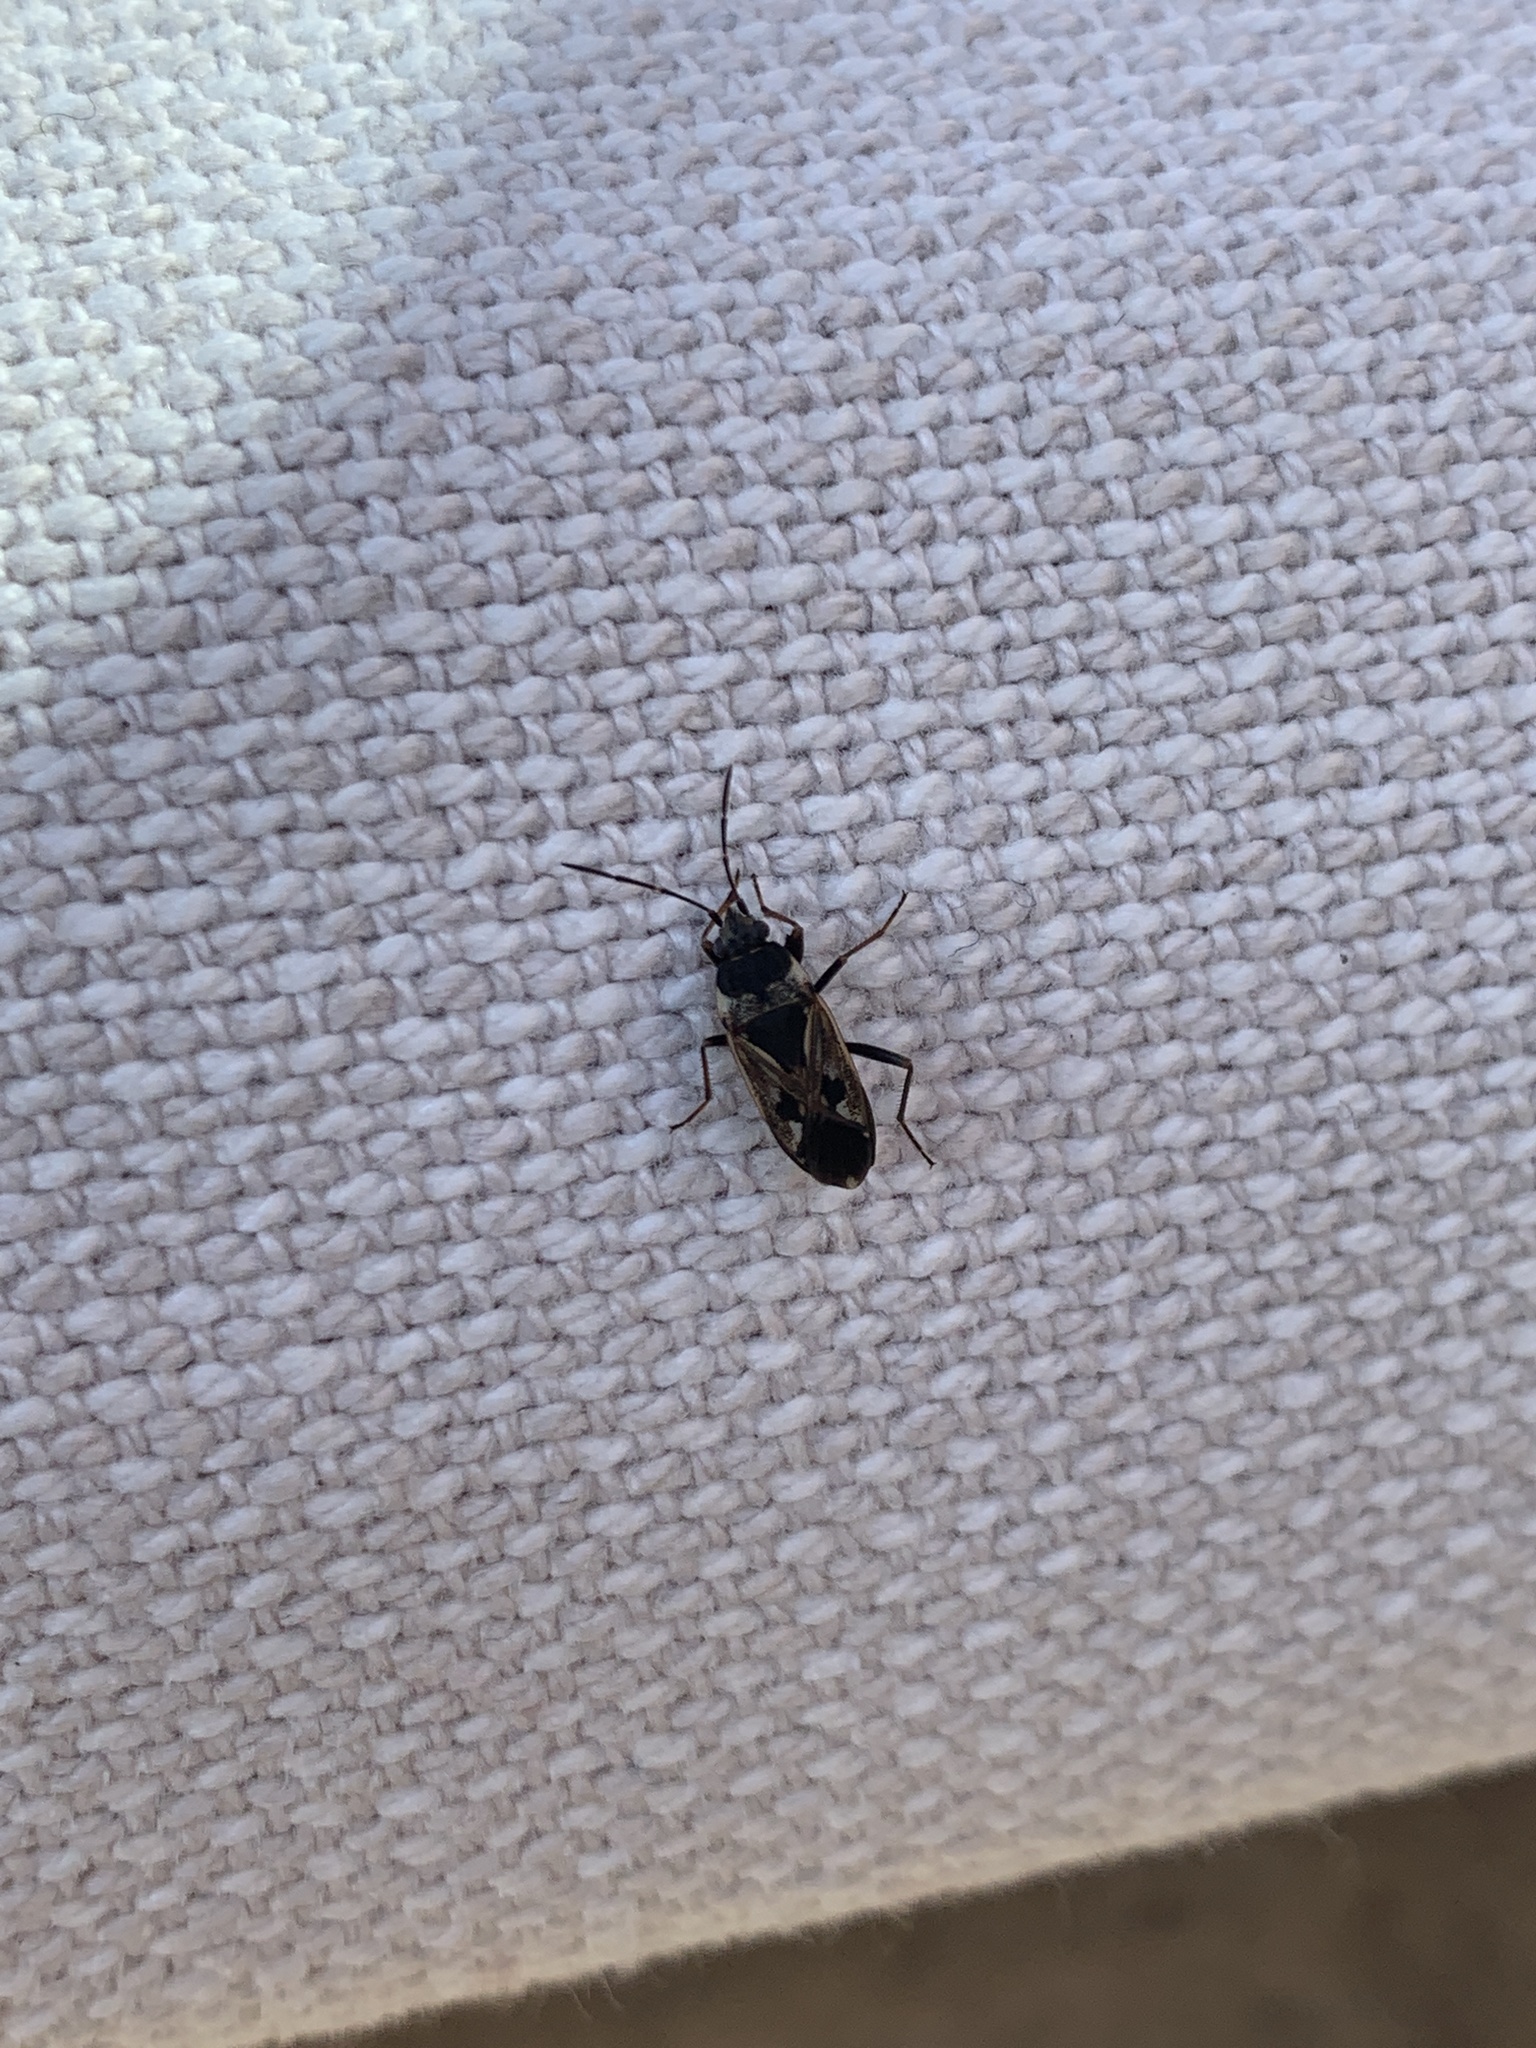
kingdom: Animalia
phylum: Arthropoda
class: Insecta
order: Hemiptera
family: Rhyparochromidae
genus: Rhyparochromus
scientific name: Rhyparochromus vulgaris
